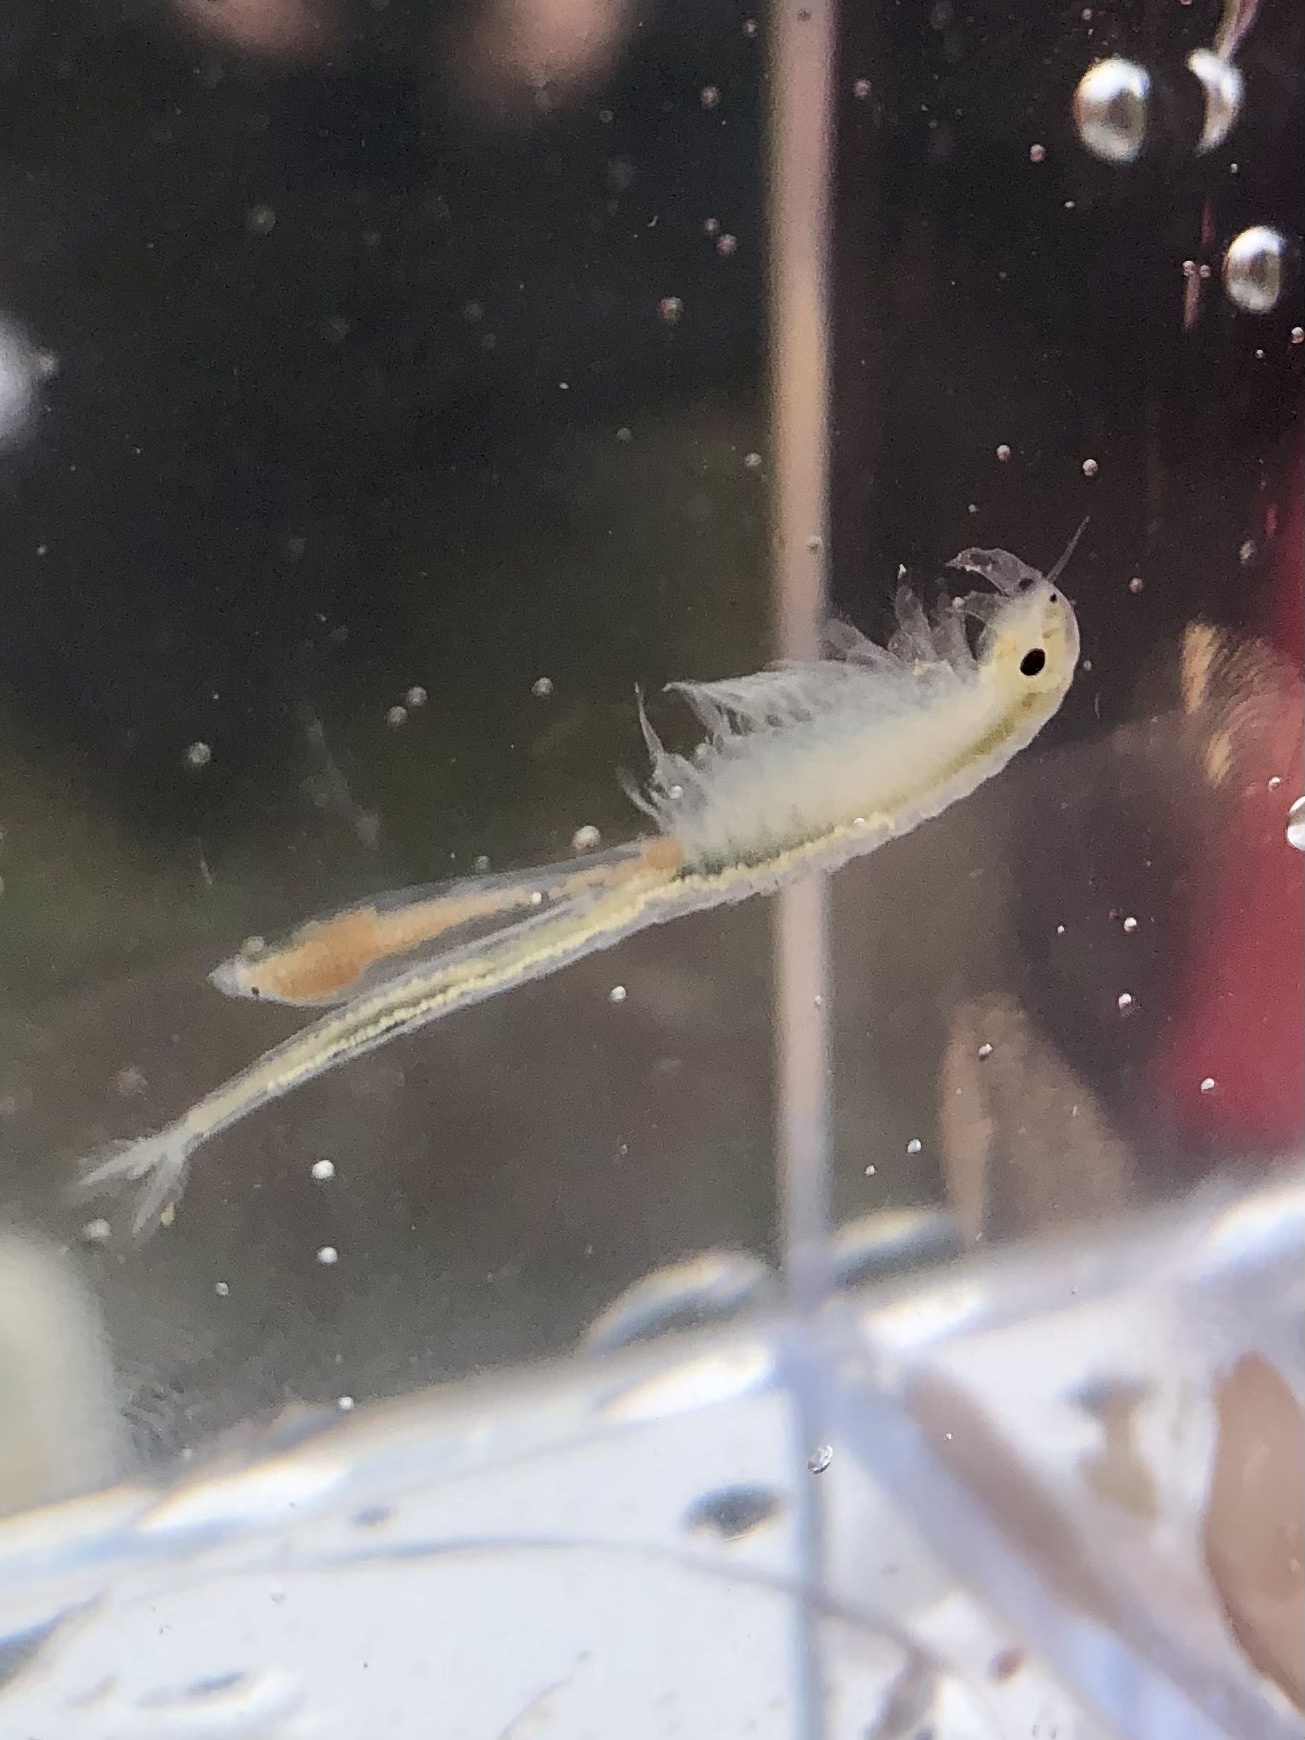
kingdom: Animalia
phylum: Arthropoda
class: Branchiopoda
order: Anostraca
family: Branchinectidae
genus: Branchinecta
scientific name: Branchinecta conservatio
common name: Conservancy fairy shrimp
